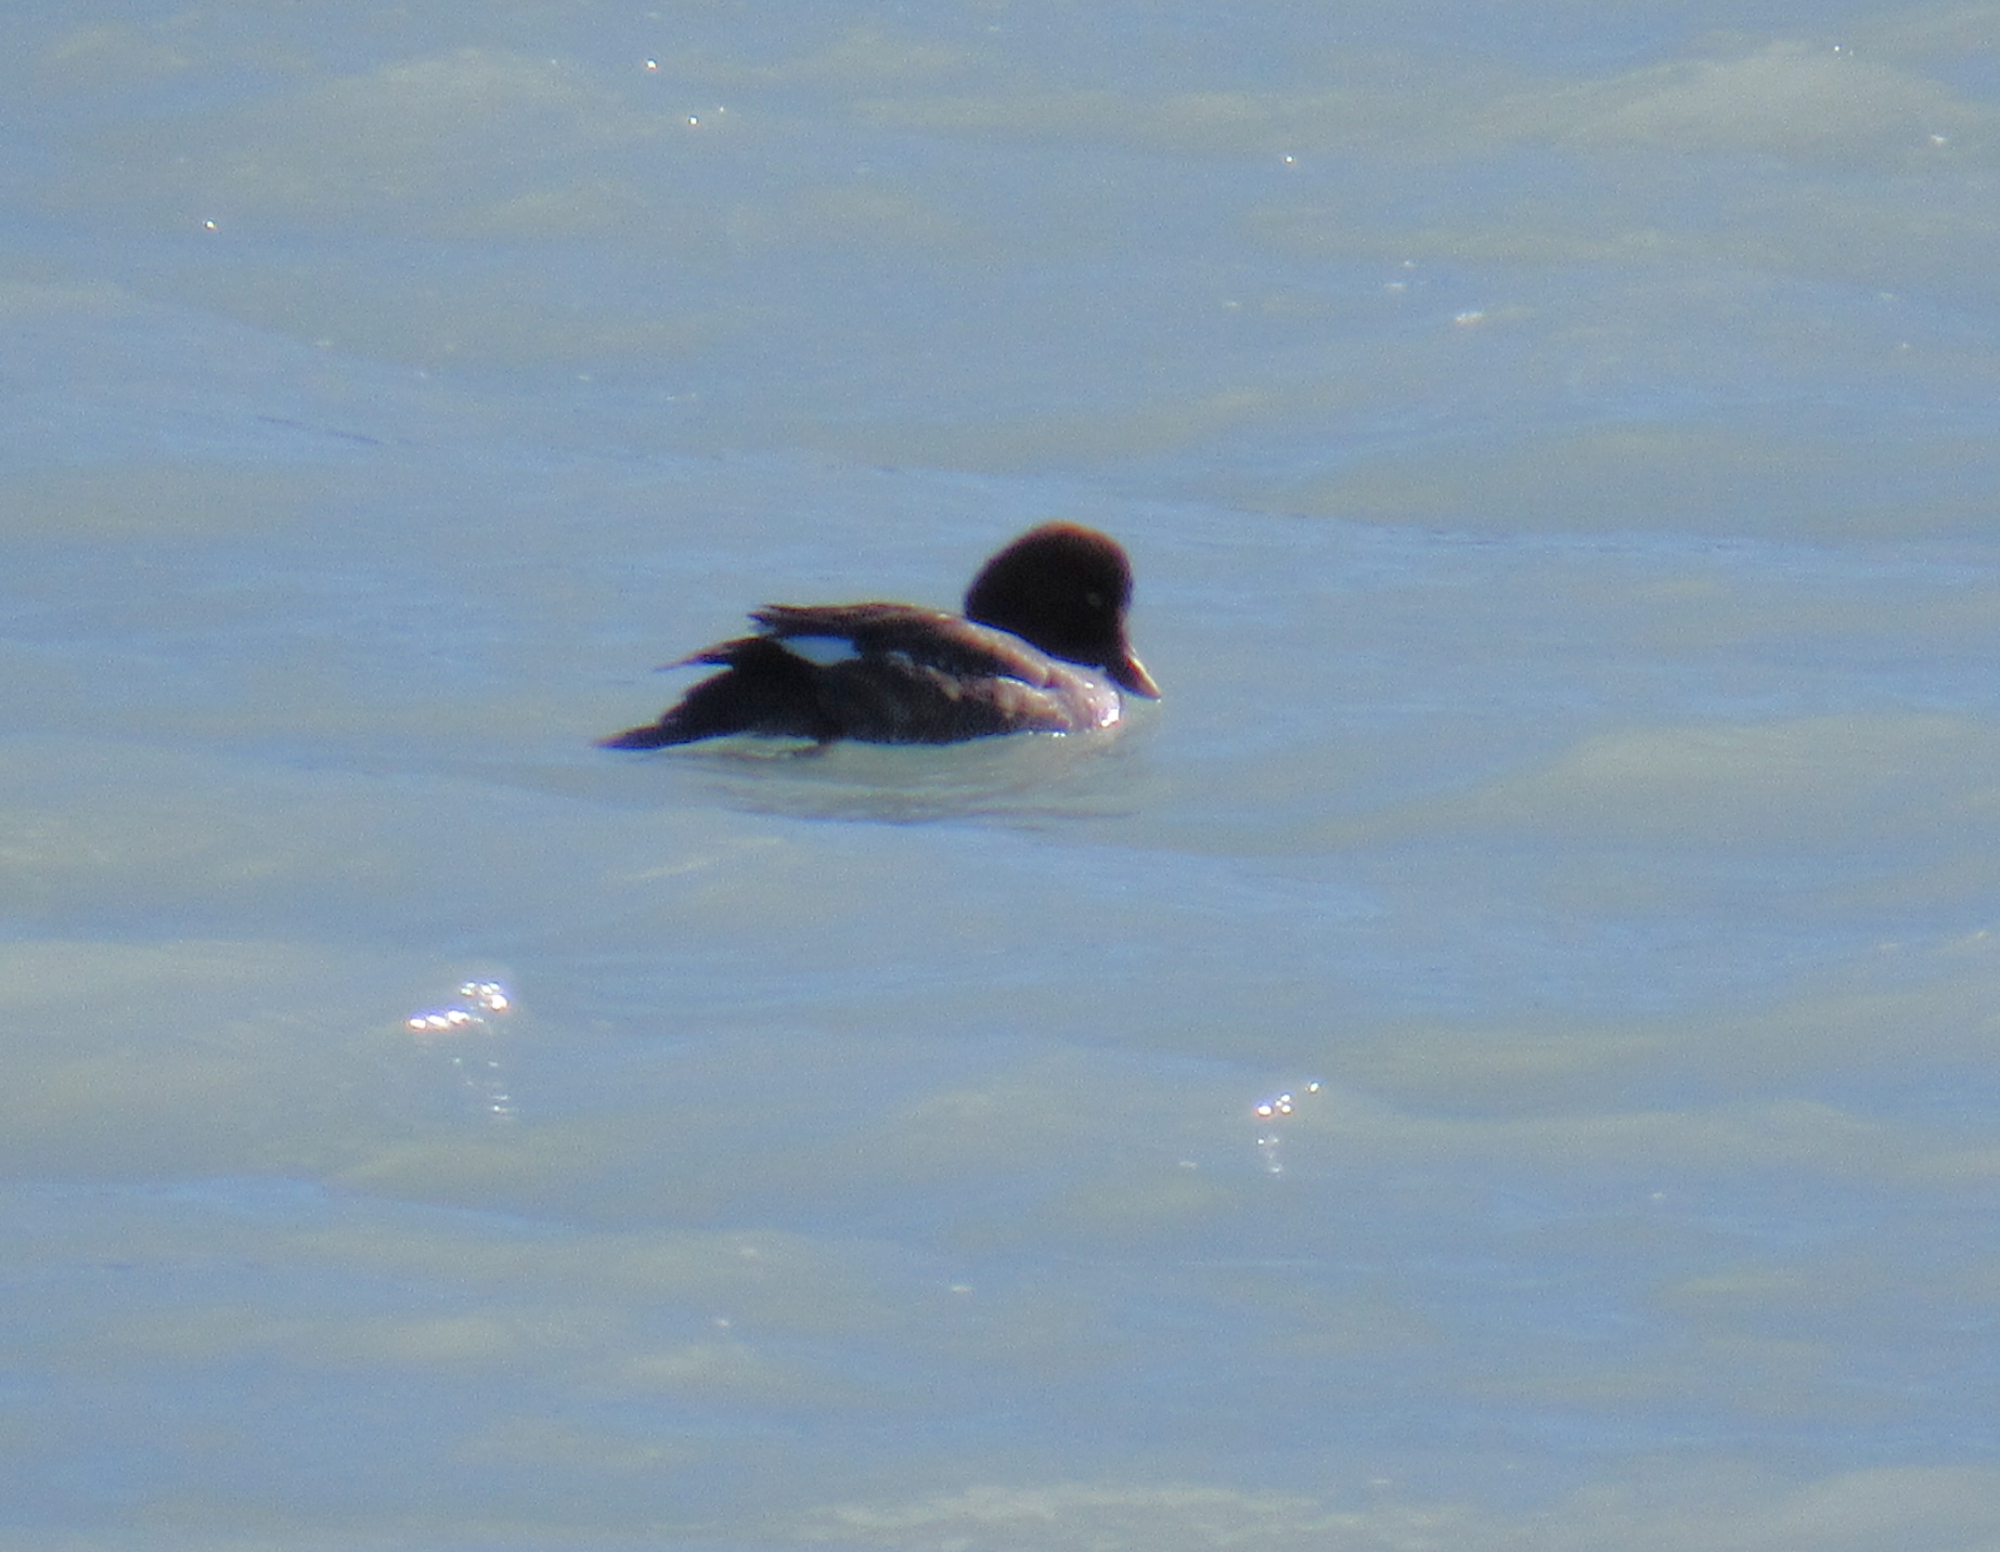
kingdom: Animalia
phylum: Chordata
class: Aves
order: Anseriformes
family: Anatidae
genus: Bucephala
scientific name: Bucephala clangula
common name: Common goldeneye
